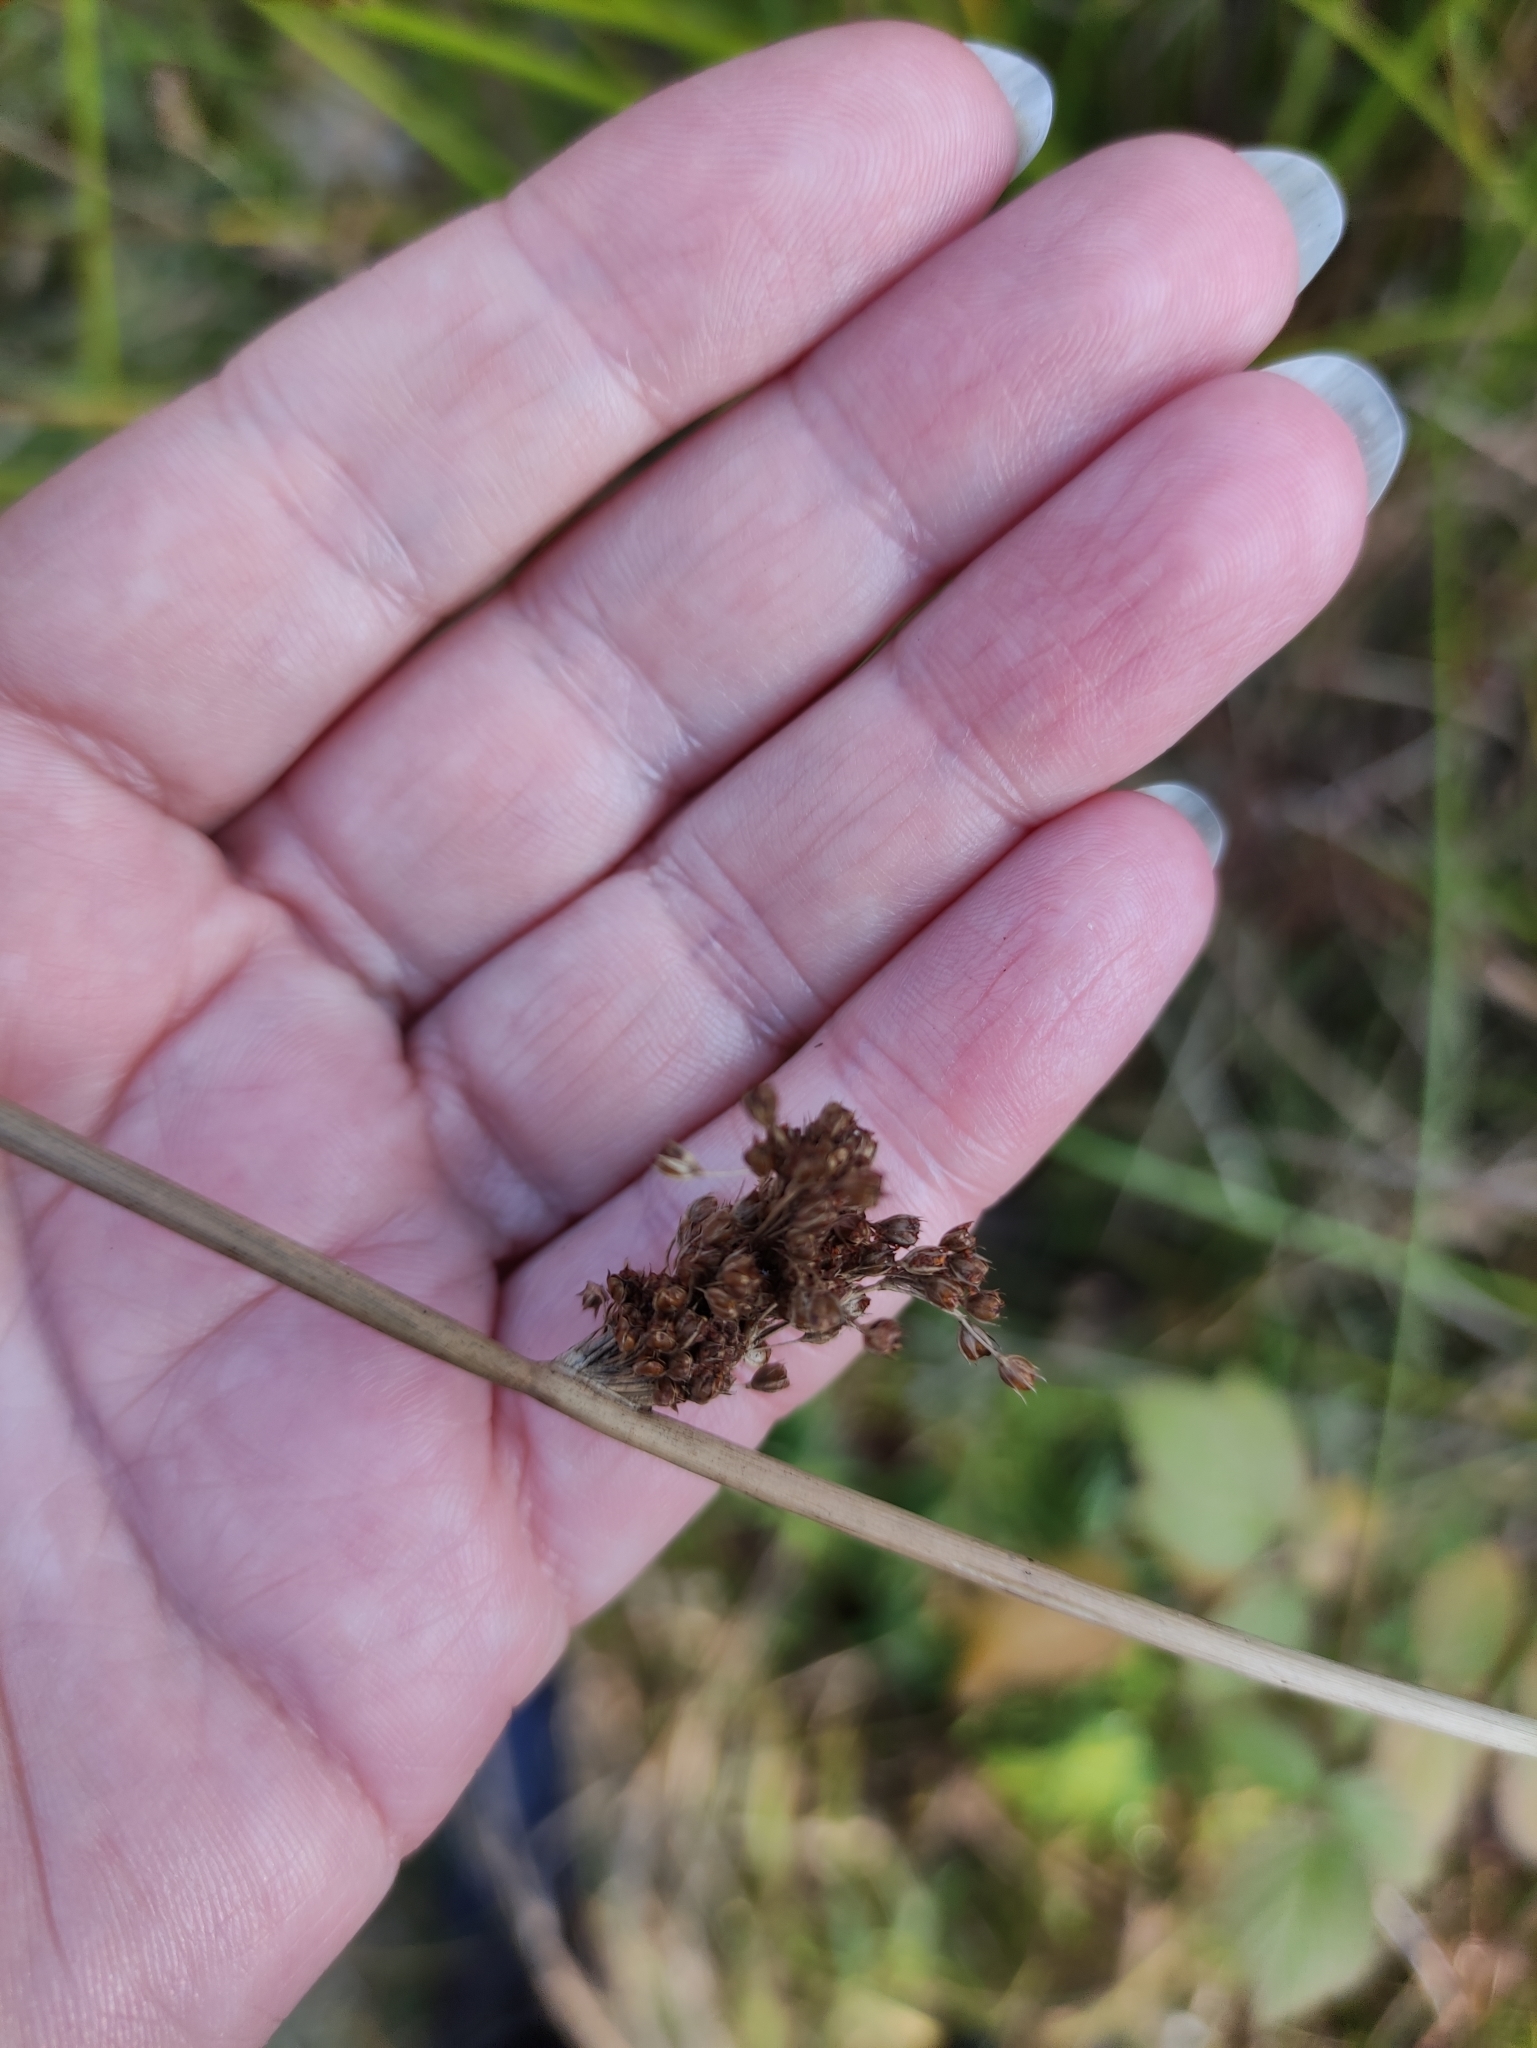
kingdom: Plantae
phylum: Tracheophyta
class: Liliopsida
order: Poales
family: Juncaceae
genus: Juncus
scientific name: Juncus effusus
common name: Soft rush
